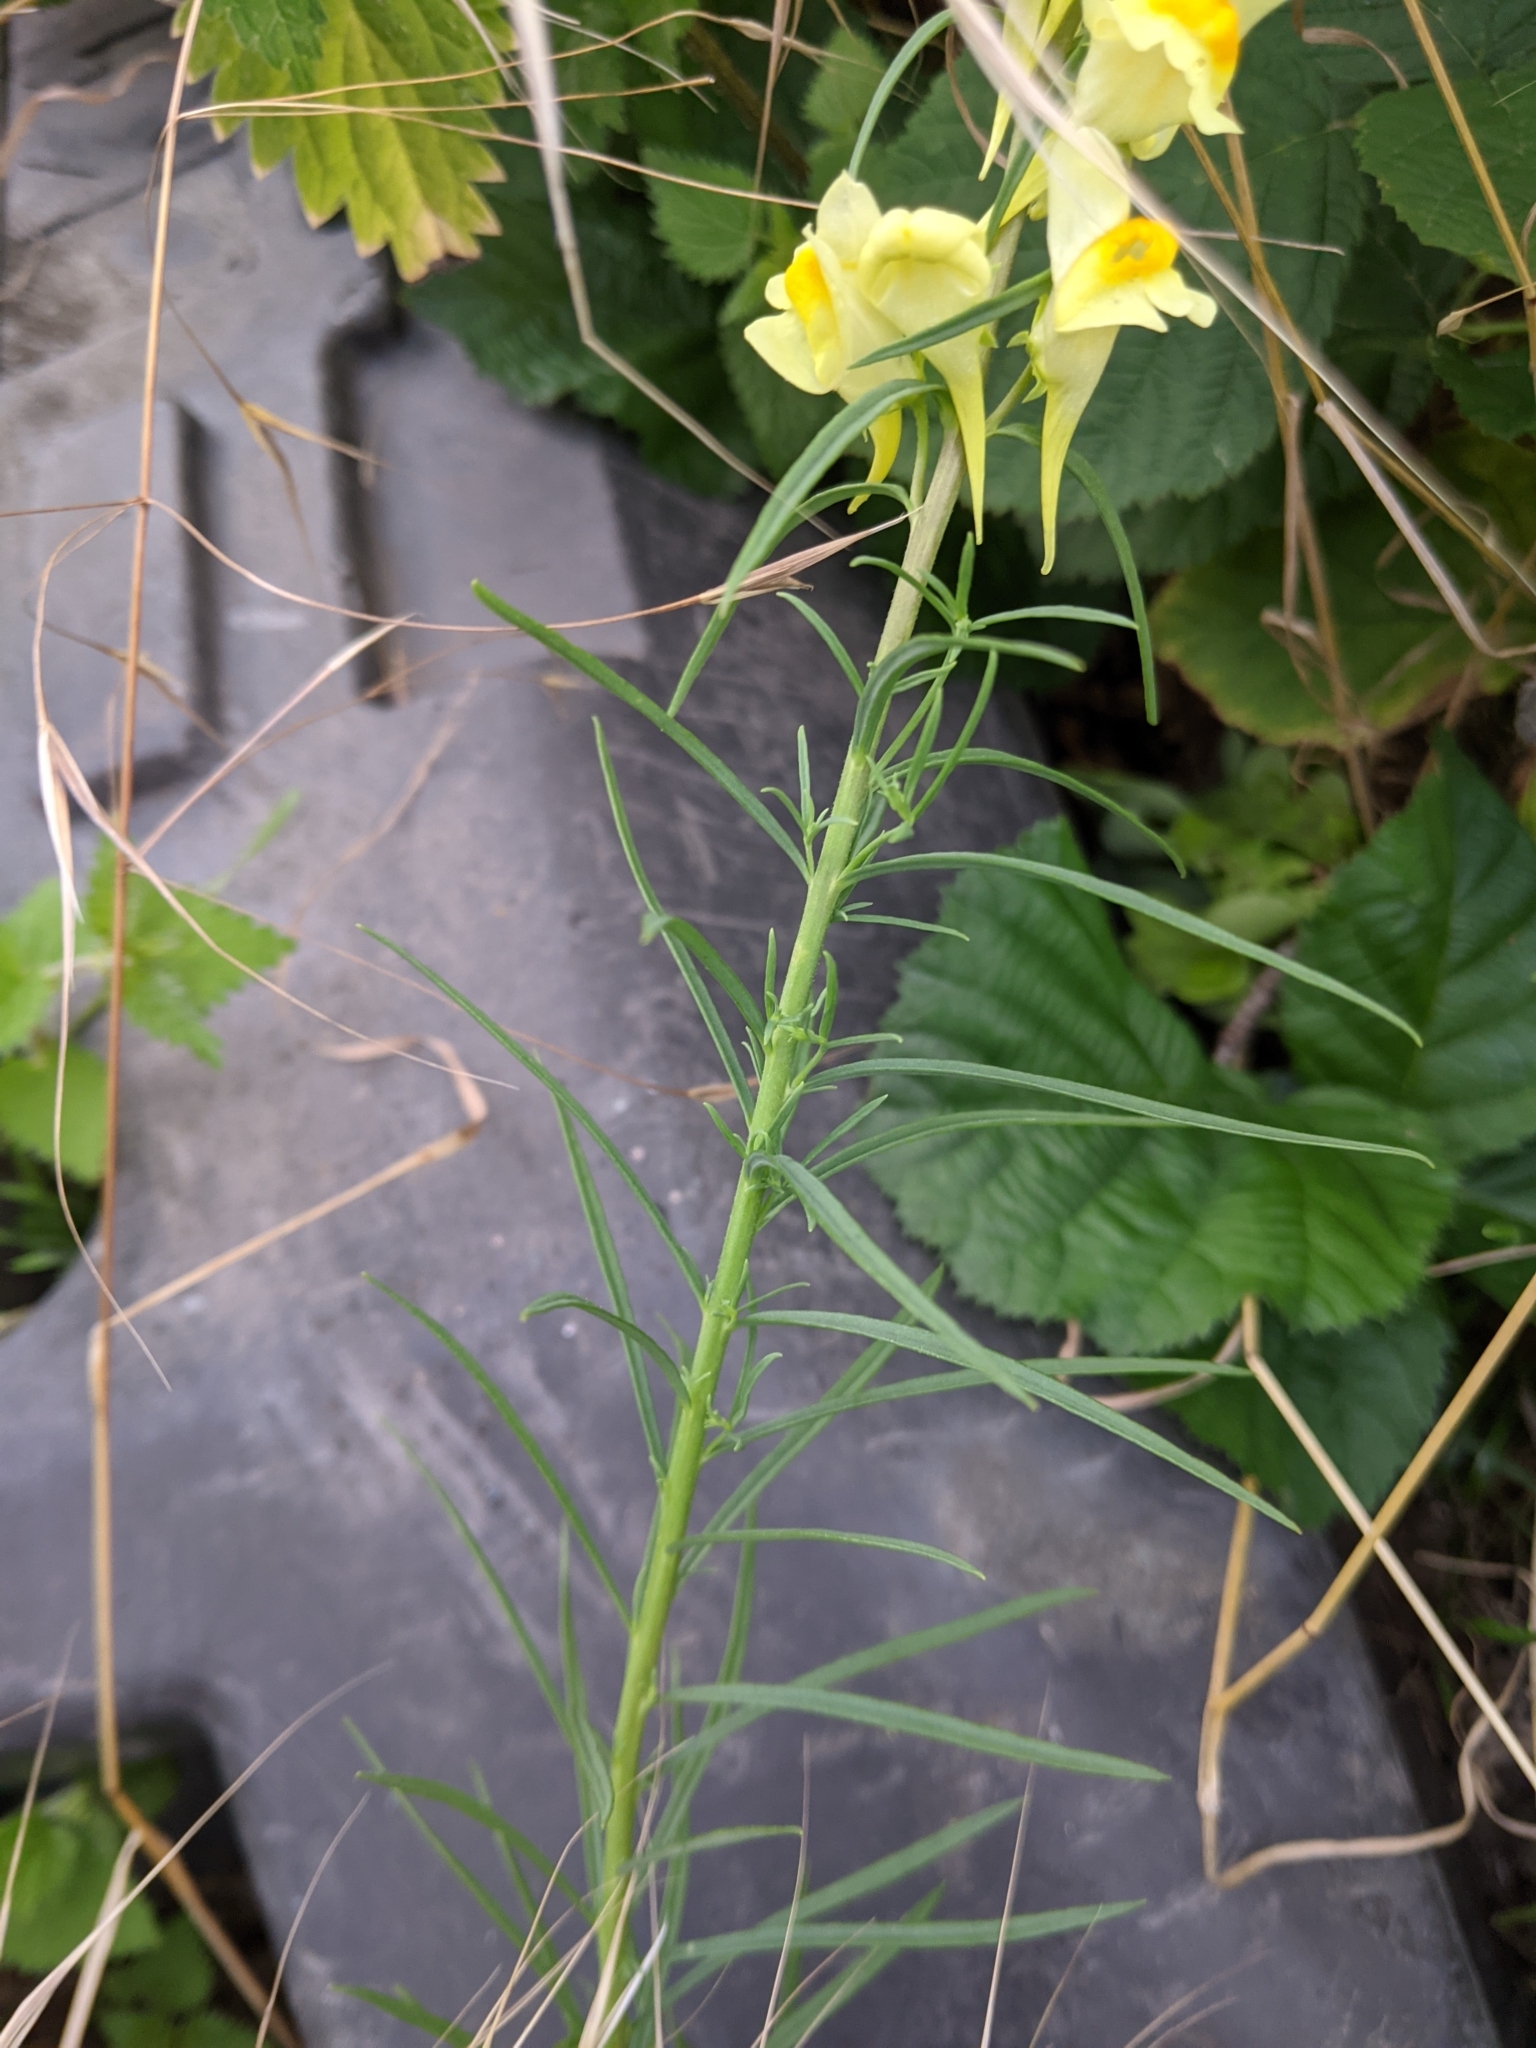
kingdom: Plantae
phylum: Tracheophyta
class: Magnoliopsida
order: Lamiales
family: Plantaginaceae
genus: Linaria
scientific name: Linaria vulgaris
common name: Butter and eggs
